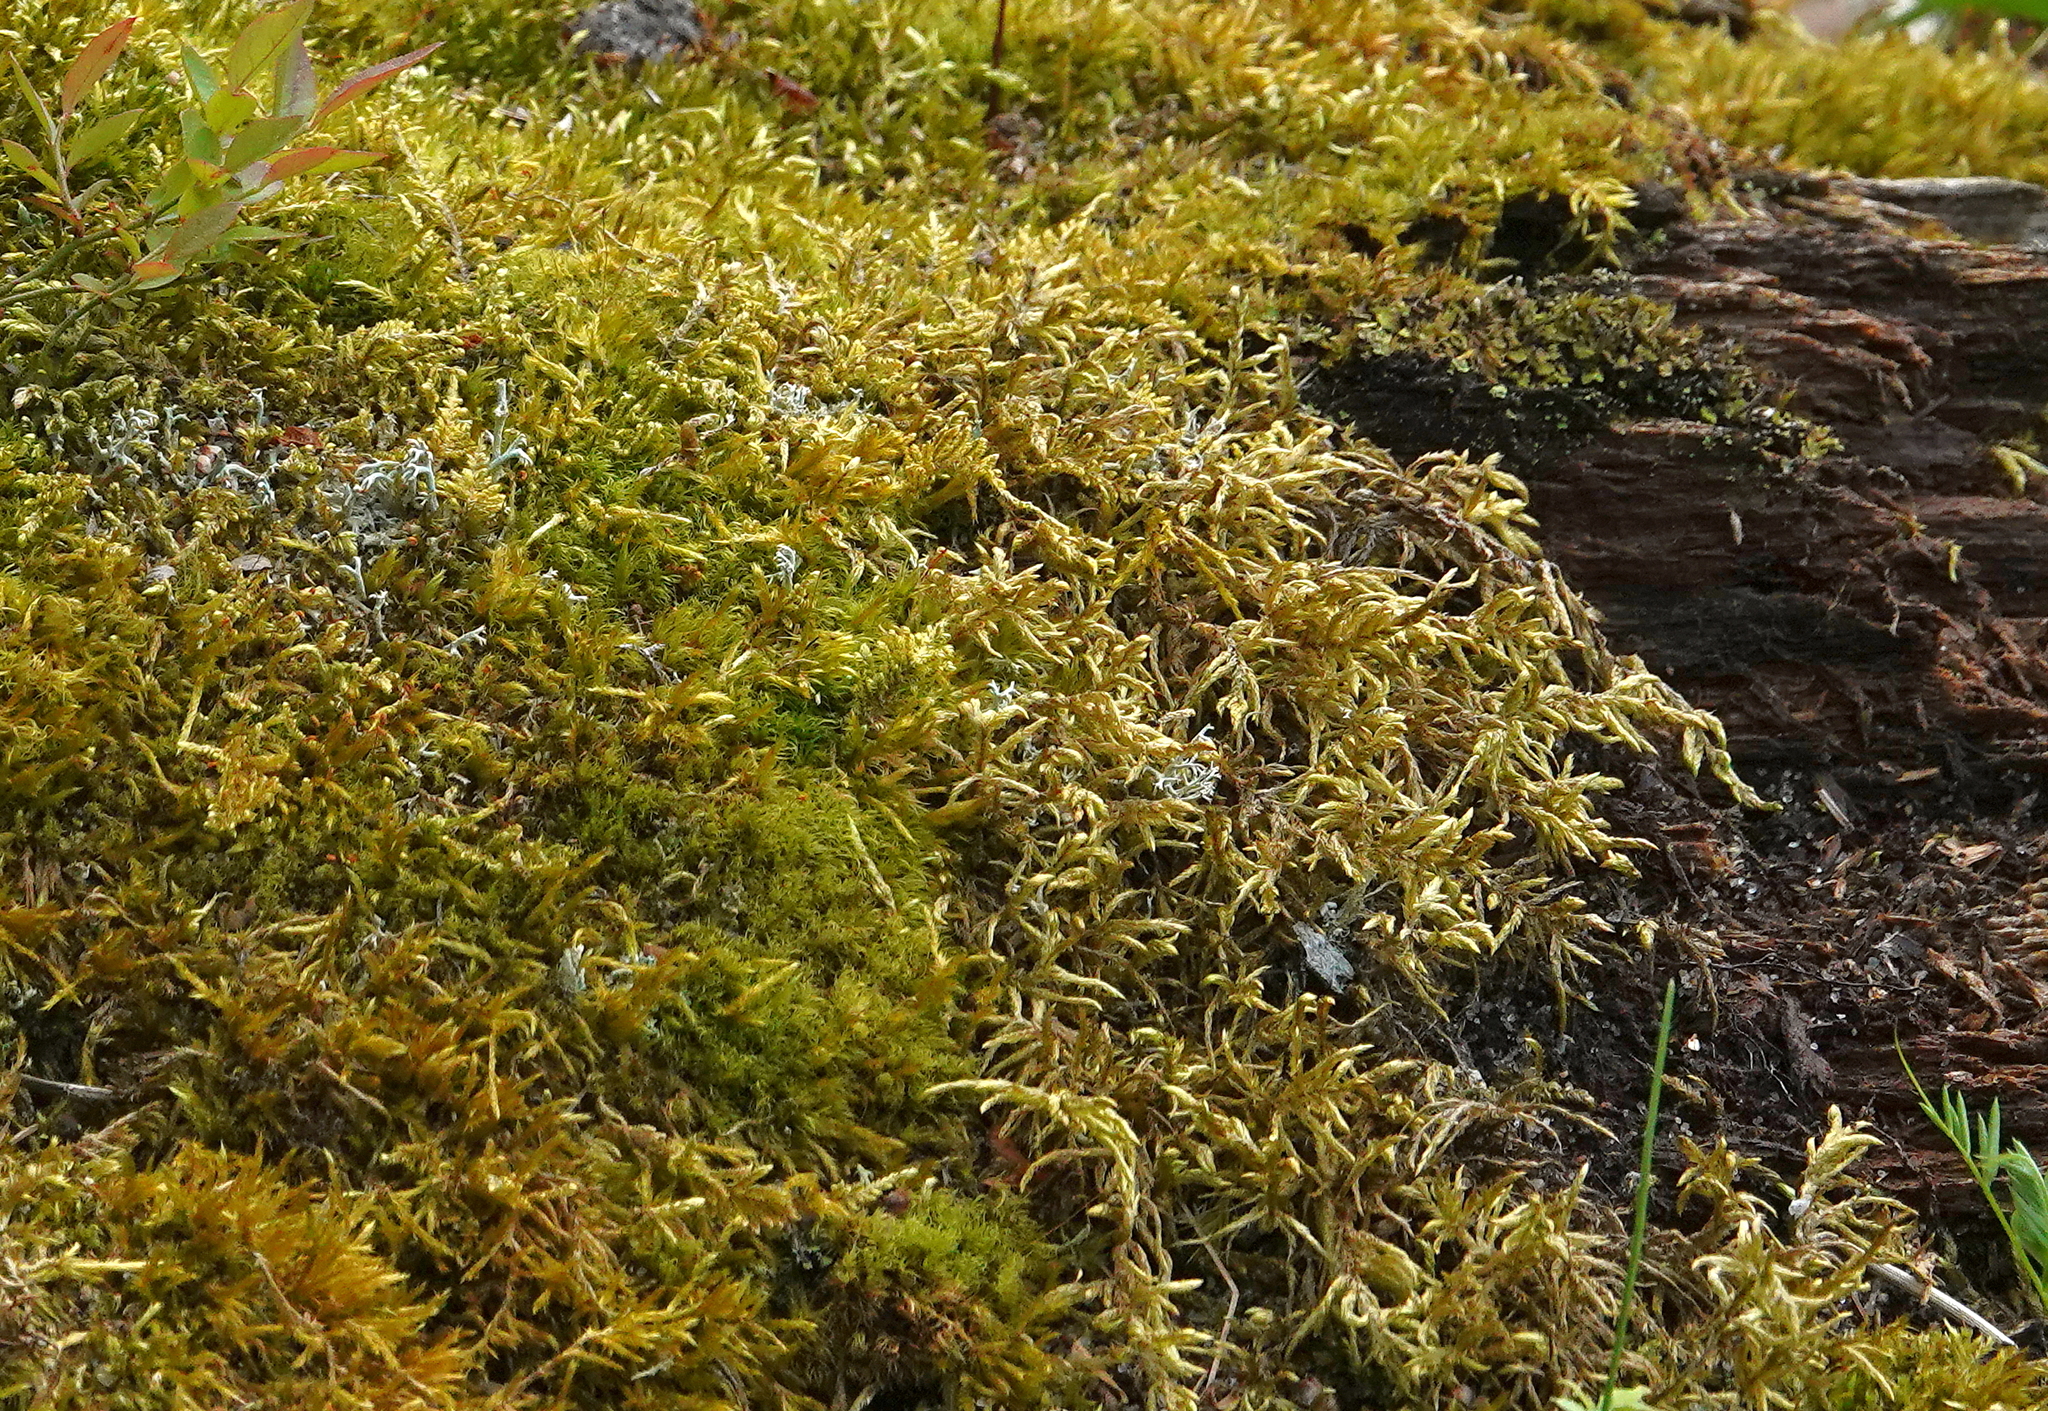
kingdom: Plantae
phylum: Bryophyta
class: Bryopsida
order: Hypnales
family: Hylocomiaceae
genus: Pleurozium
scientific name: Pleurozium schreberi
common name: Red-stemmed feather moss
